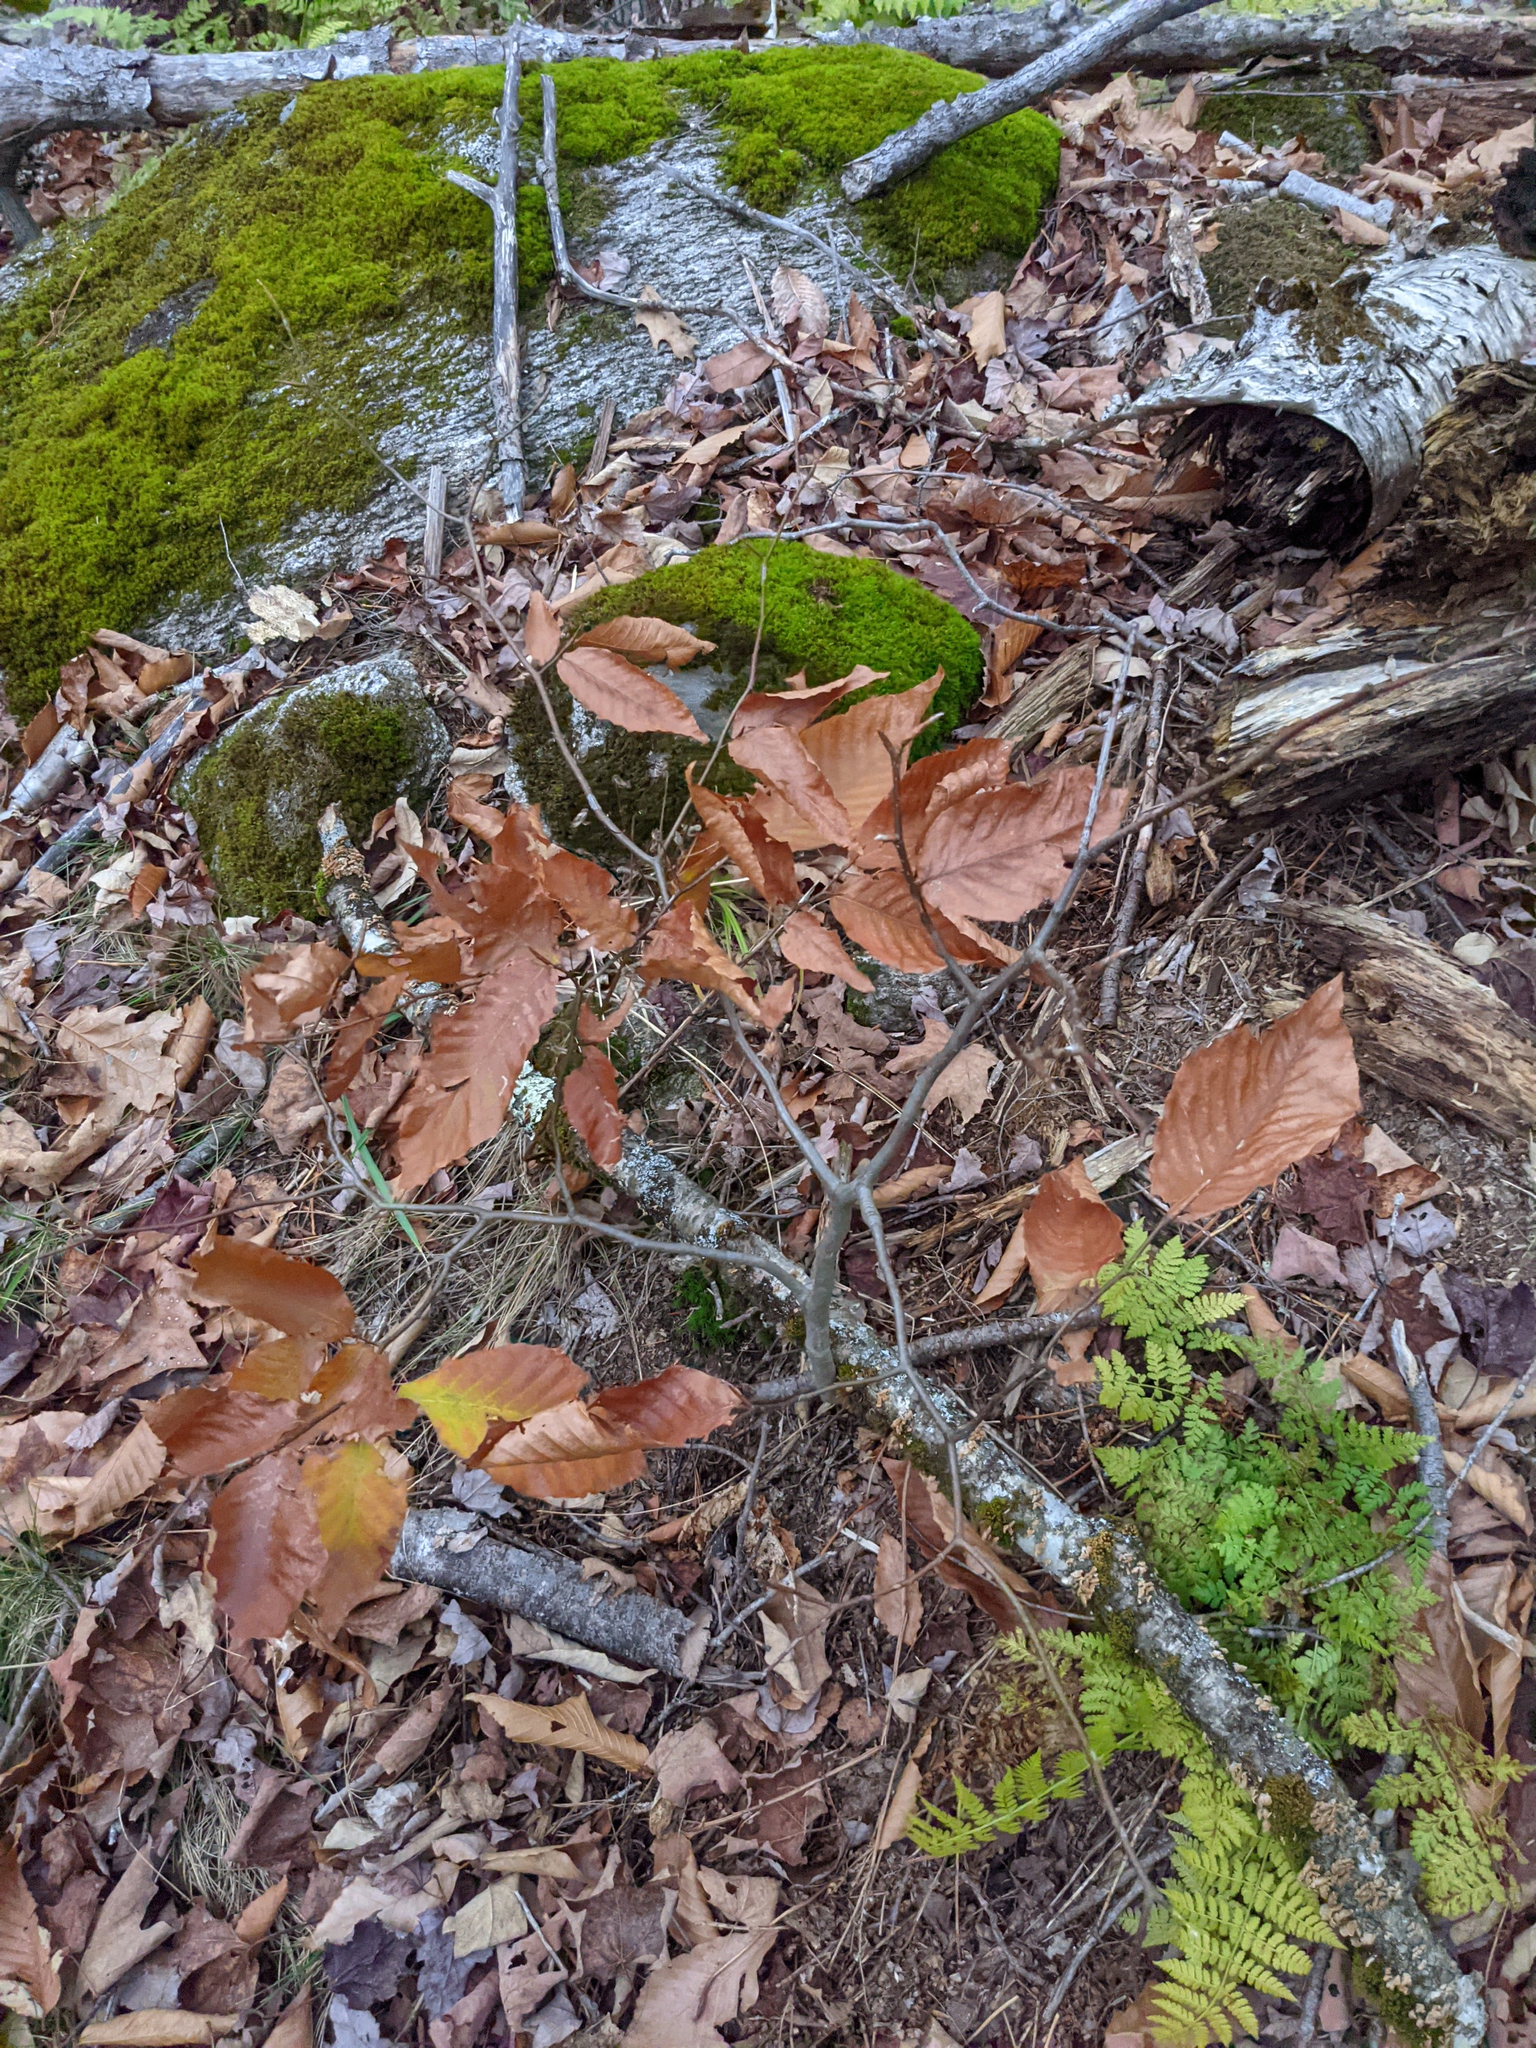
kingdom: Plantae
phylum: Tracheophyta
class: Magnoliopsida
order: Fagales
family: Fagaceae
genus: Fagus
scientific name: Fagus grandifolia
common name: American beech
